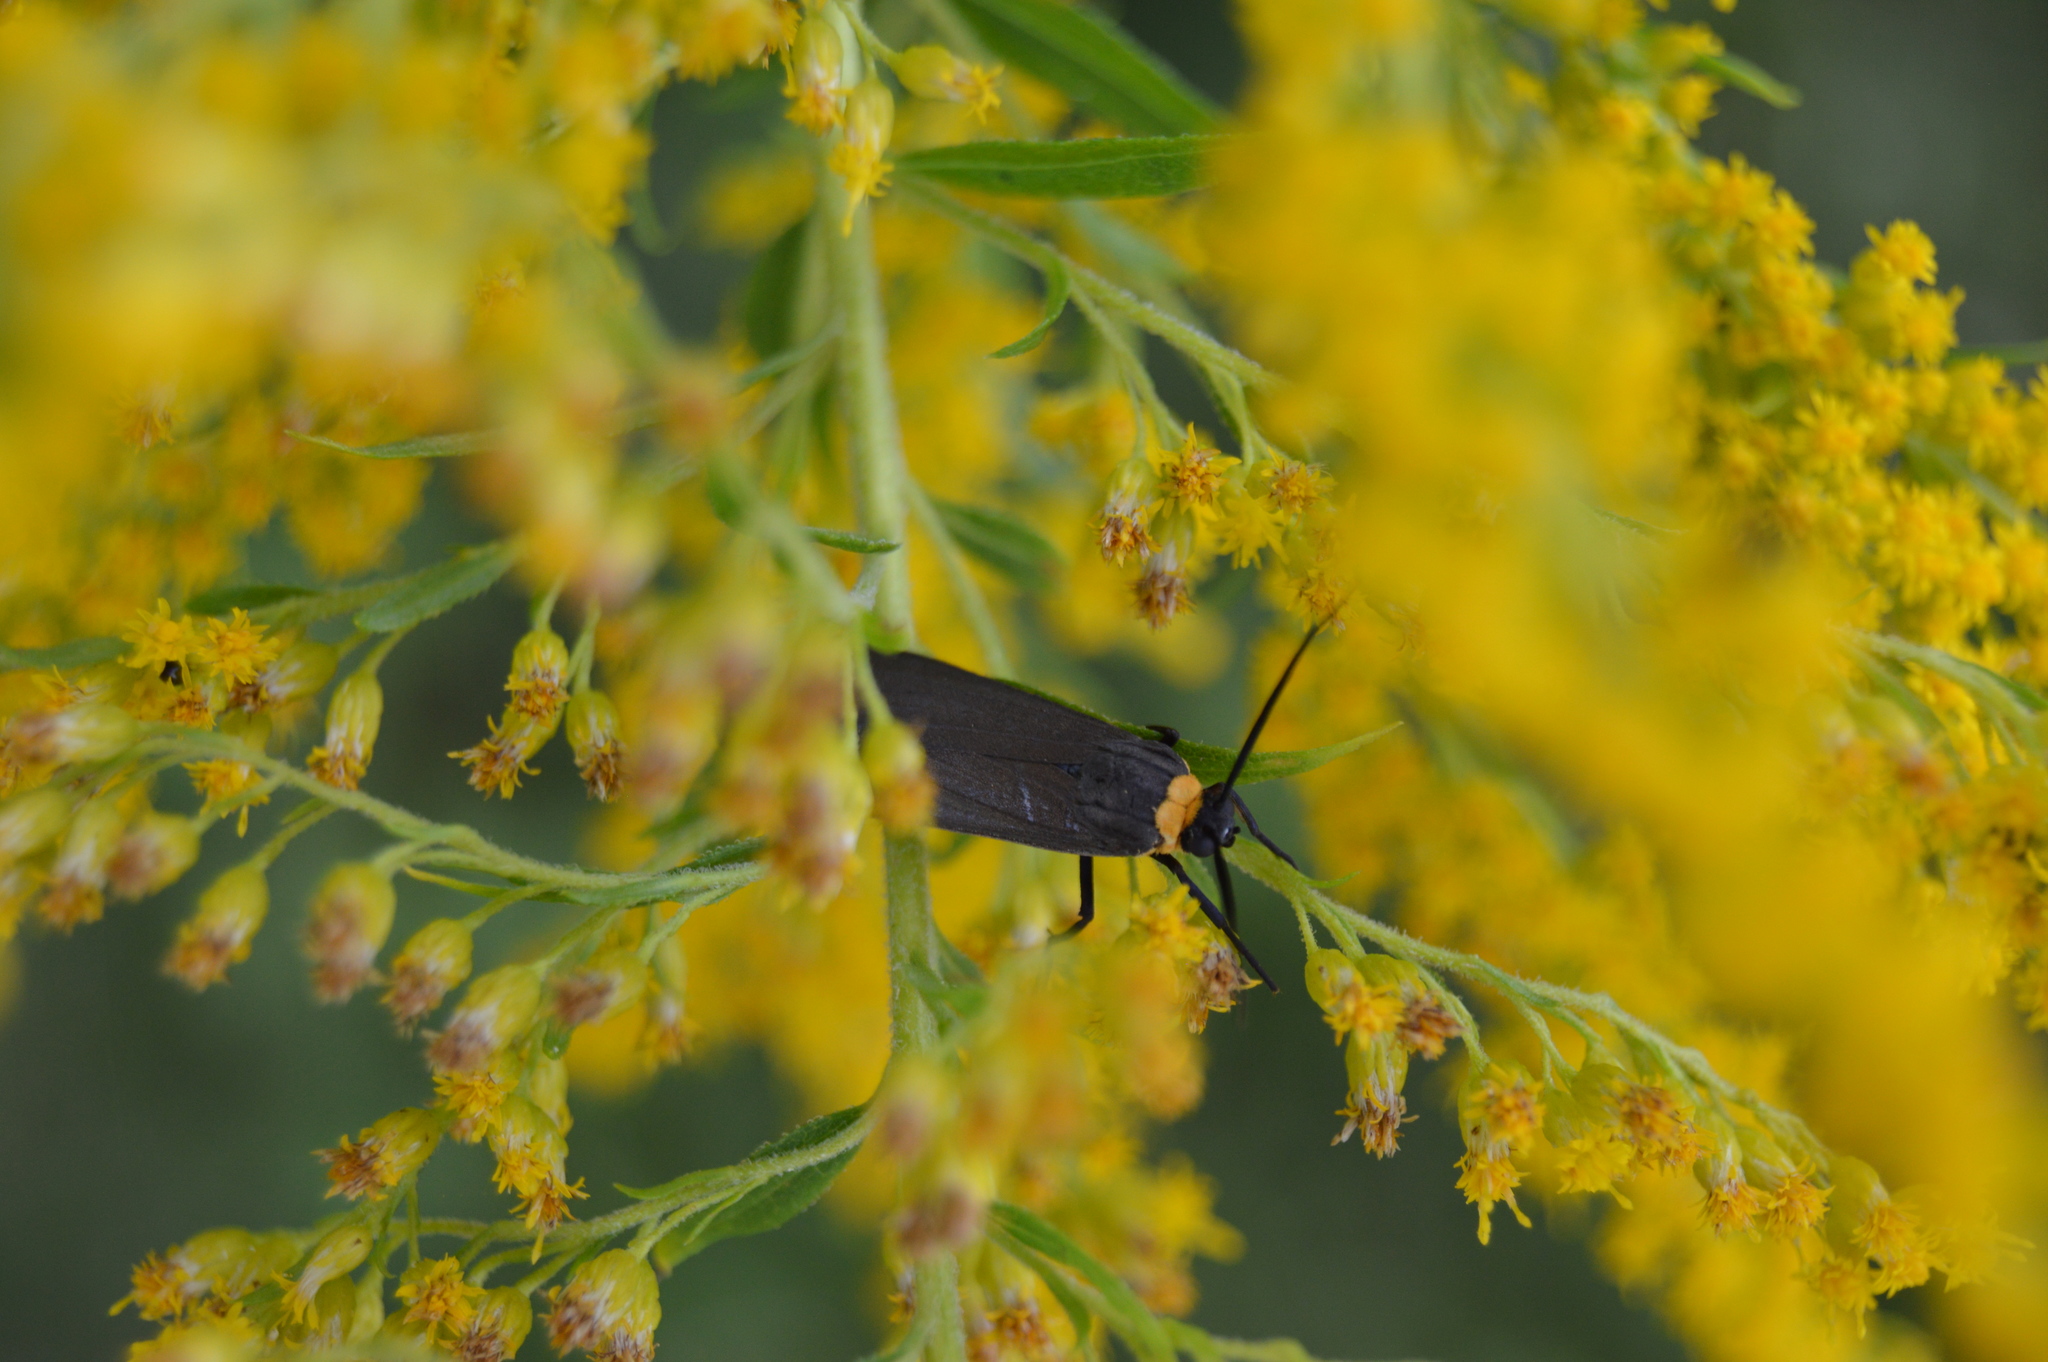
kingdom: Animalia
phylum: Arthropoda
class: Insecta
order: Lepidoptera
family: Erebidae
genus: Cisseps
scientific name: Cisseps fulvicollis
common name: Yellow-collared scape moth
